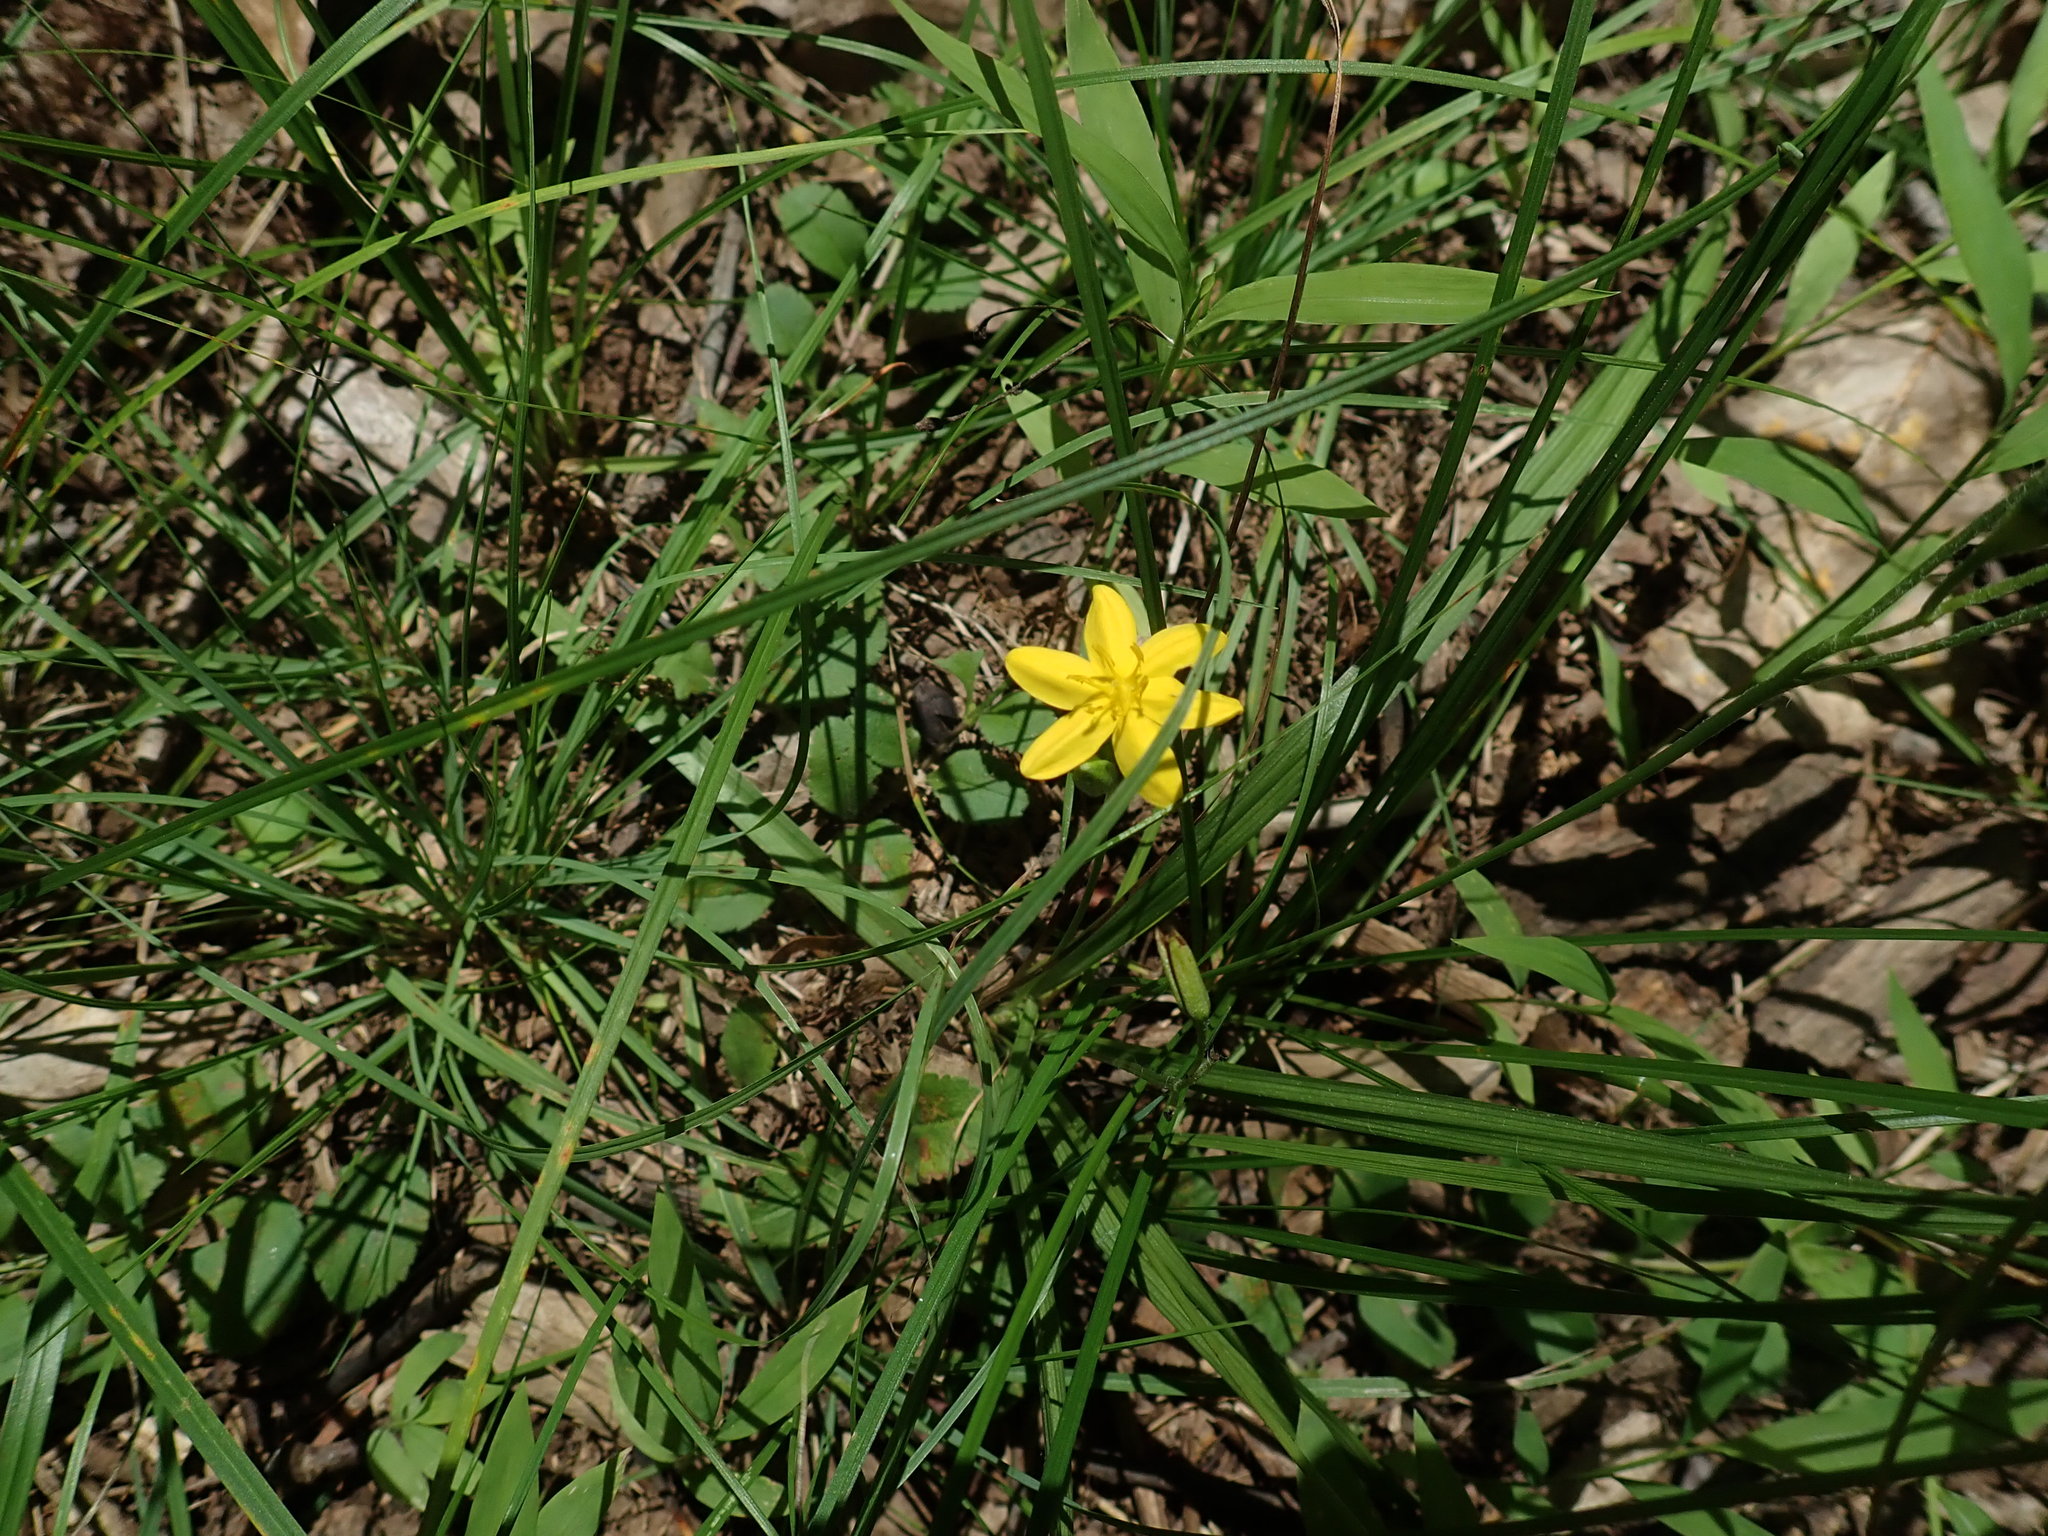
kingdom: Plantae
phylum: Tracheophyta
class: Liliopsida
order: Asparagales
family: Hypoxidaceae
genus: Hypoxis
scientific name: Hypoxis hirsuta
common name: Common goldstar
